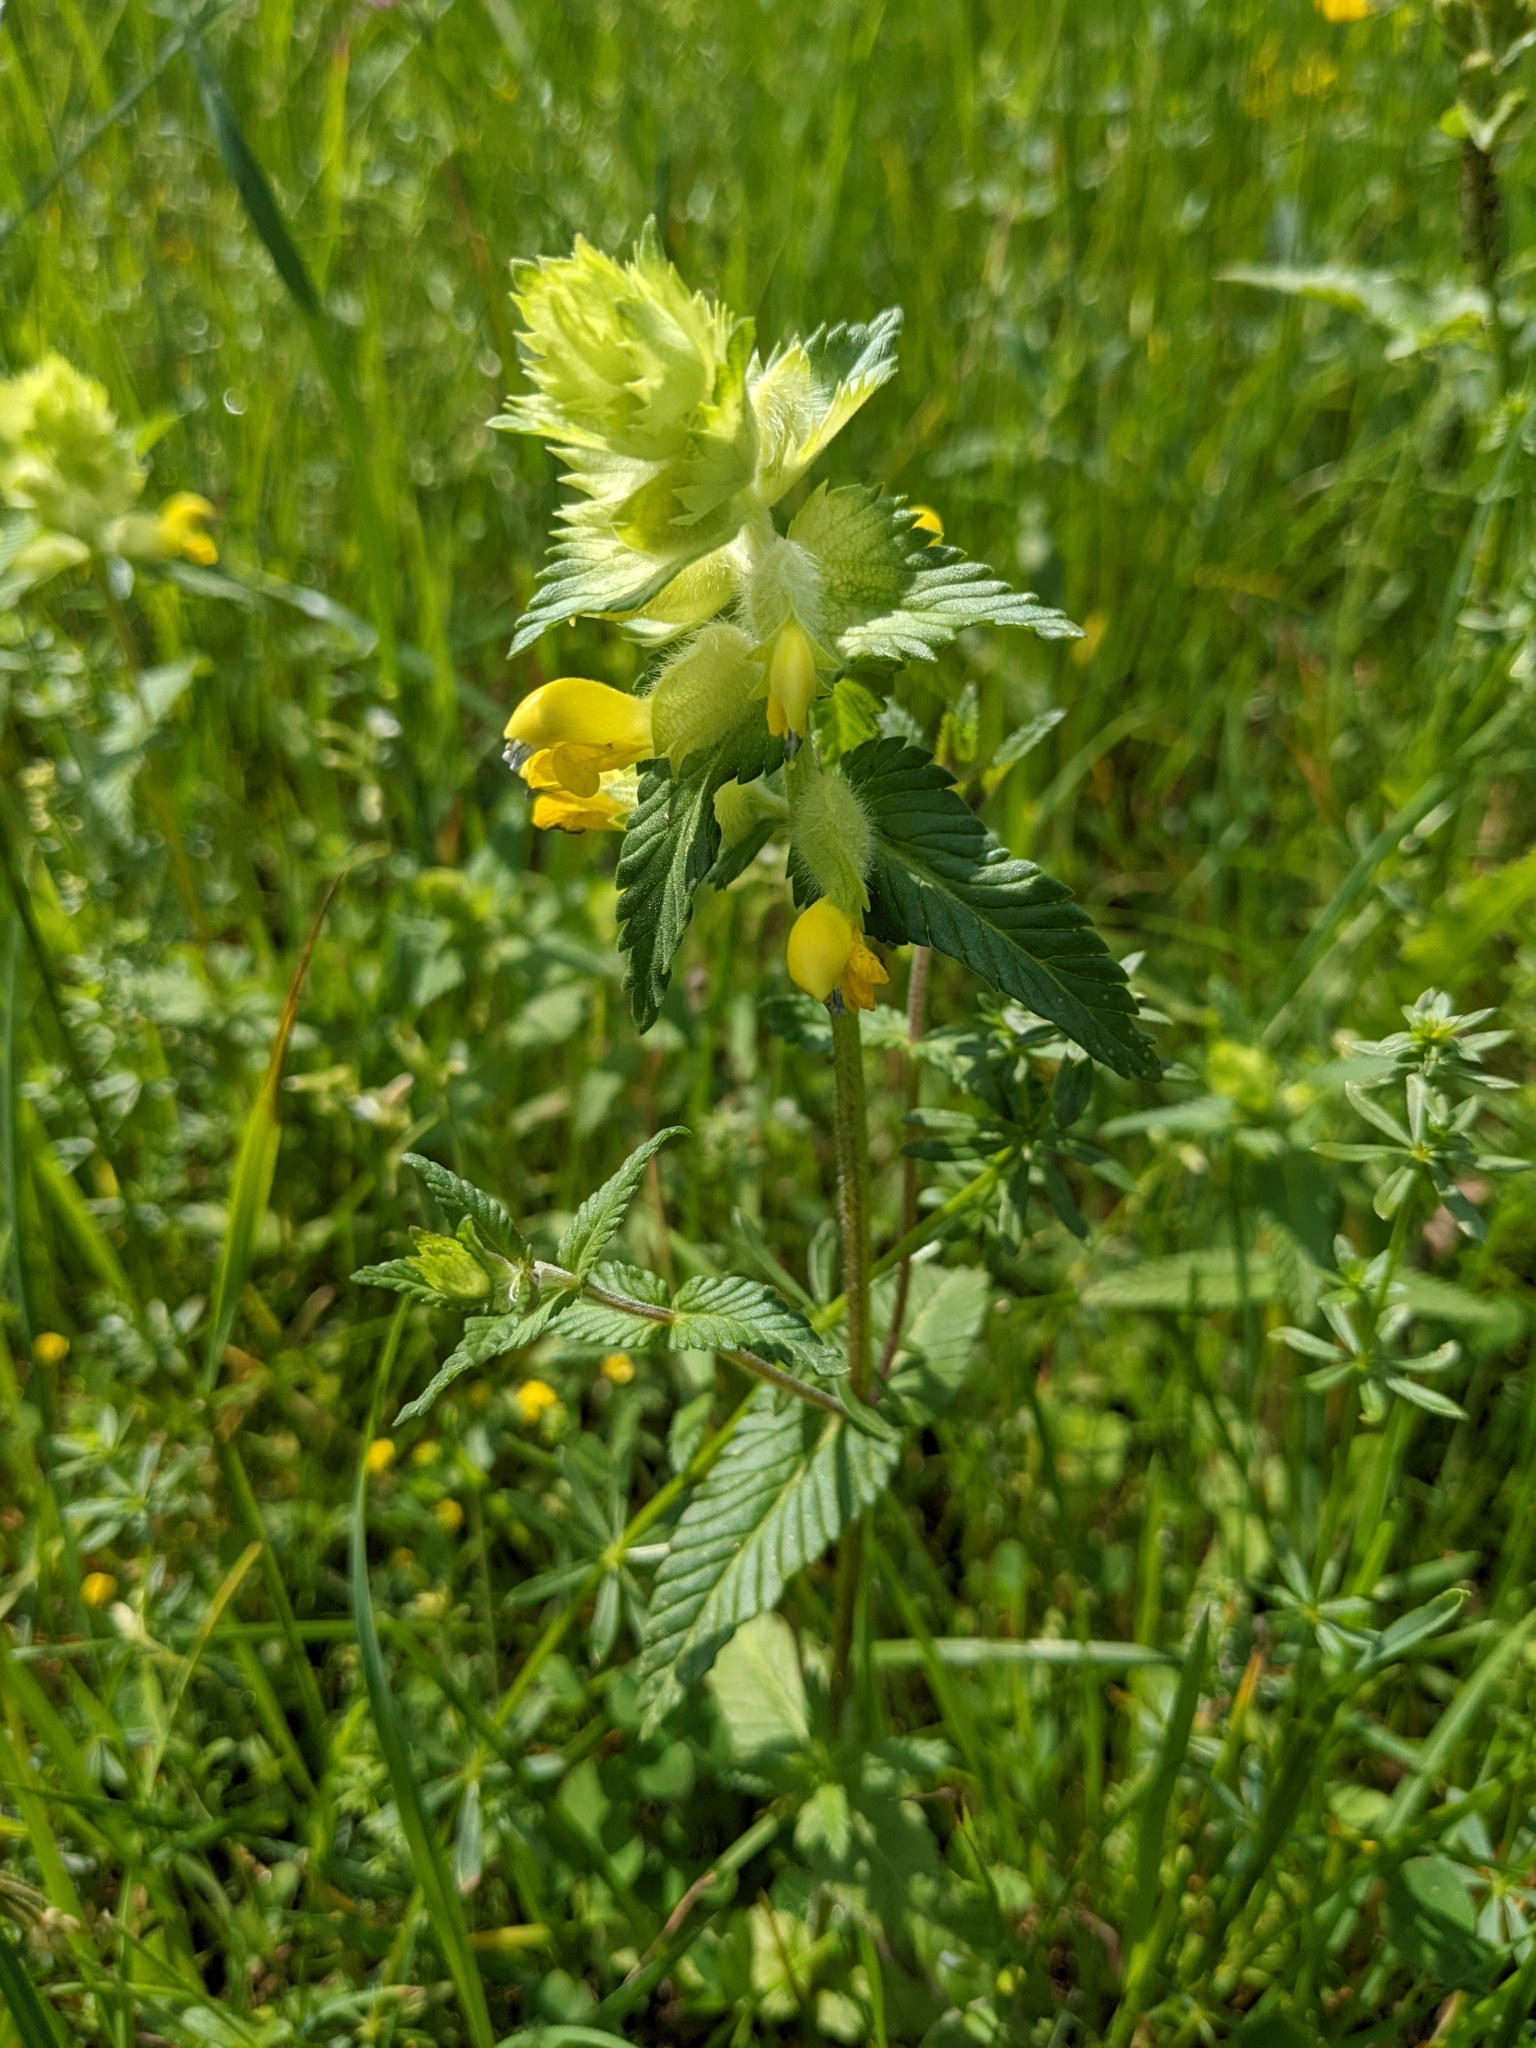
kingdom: Plantae
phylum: Tracheophyta
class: Magnoliopsida
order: Lamiales
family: Orobanchaceae
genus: Rhinanthus
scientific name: Rhinanthus alectorolophus
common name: Greater yellow-rattle
